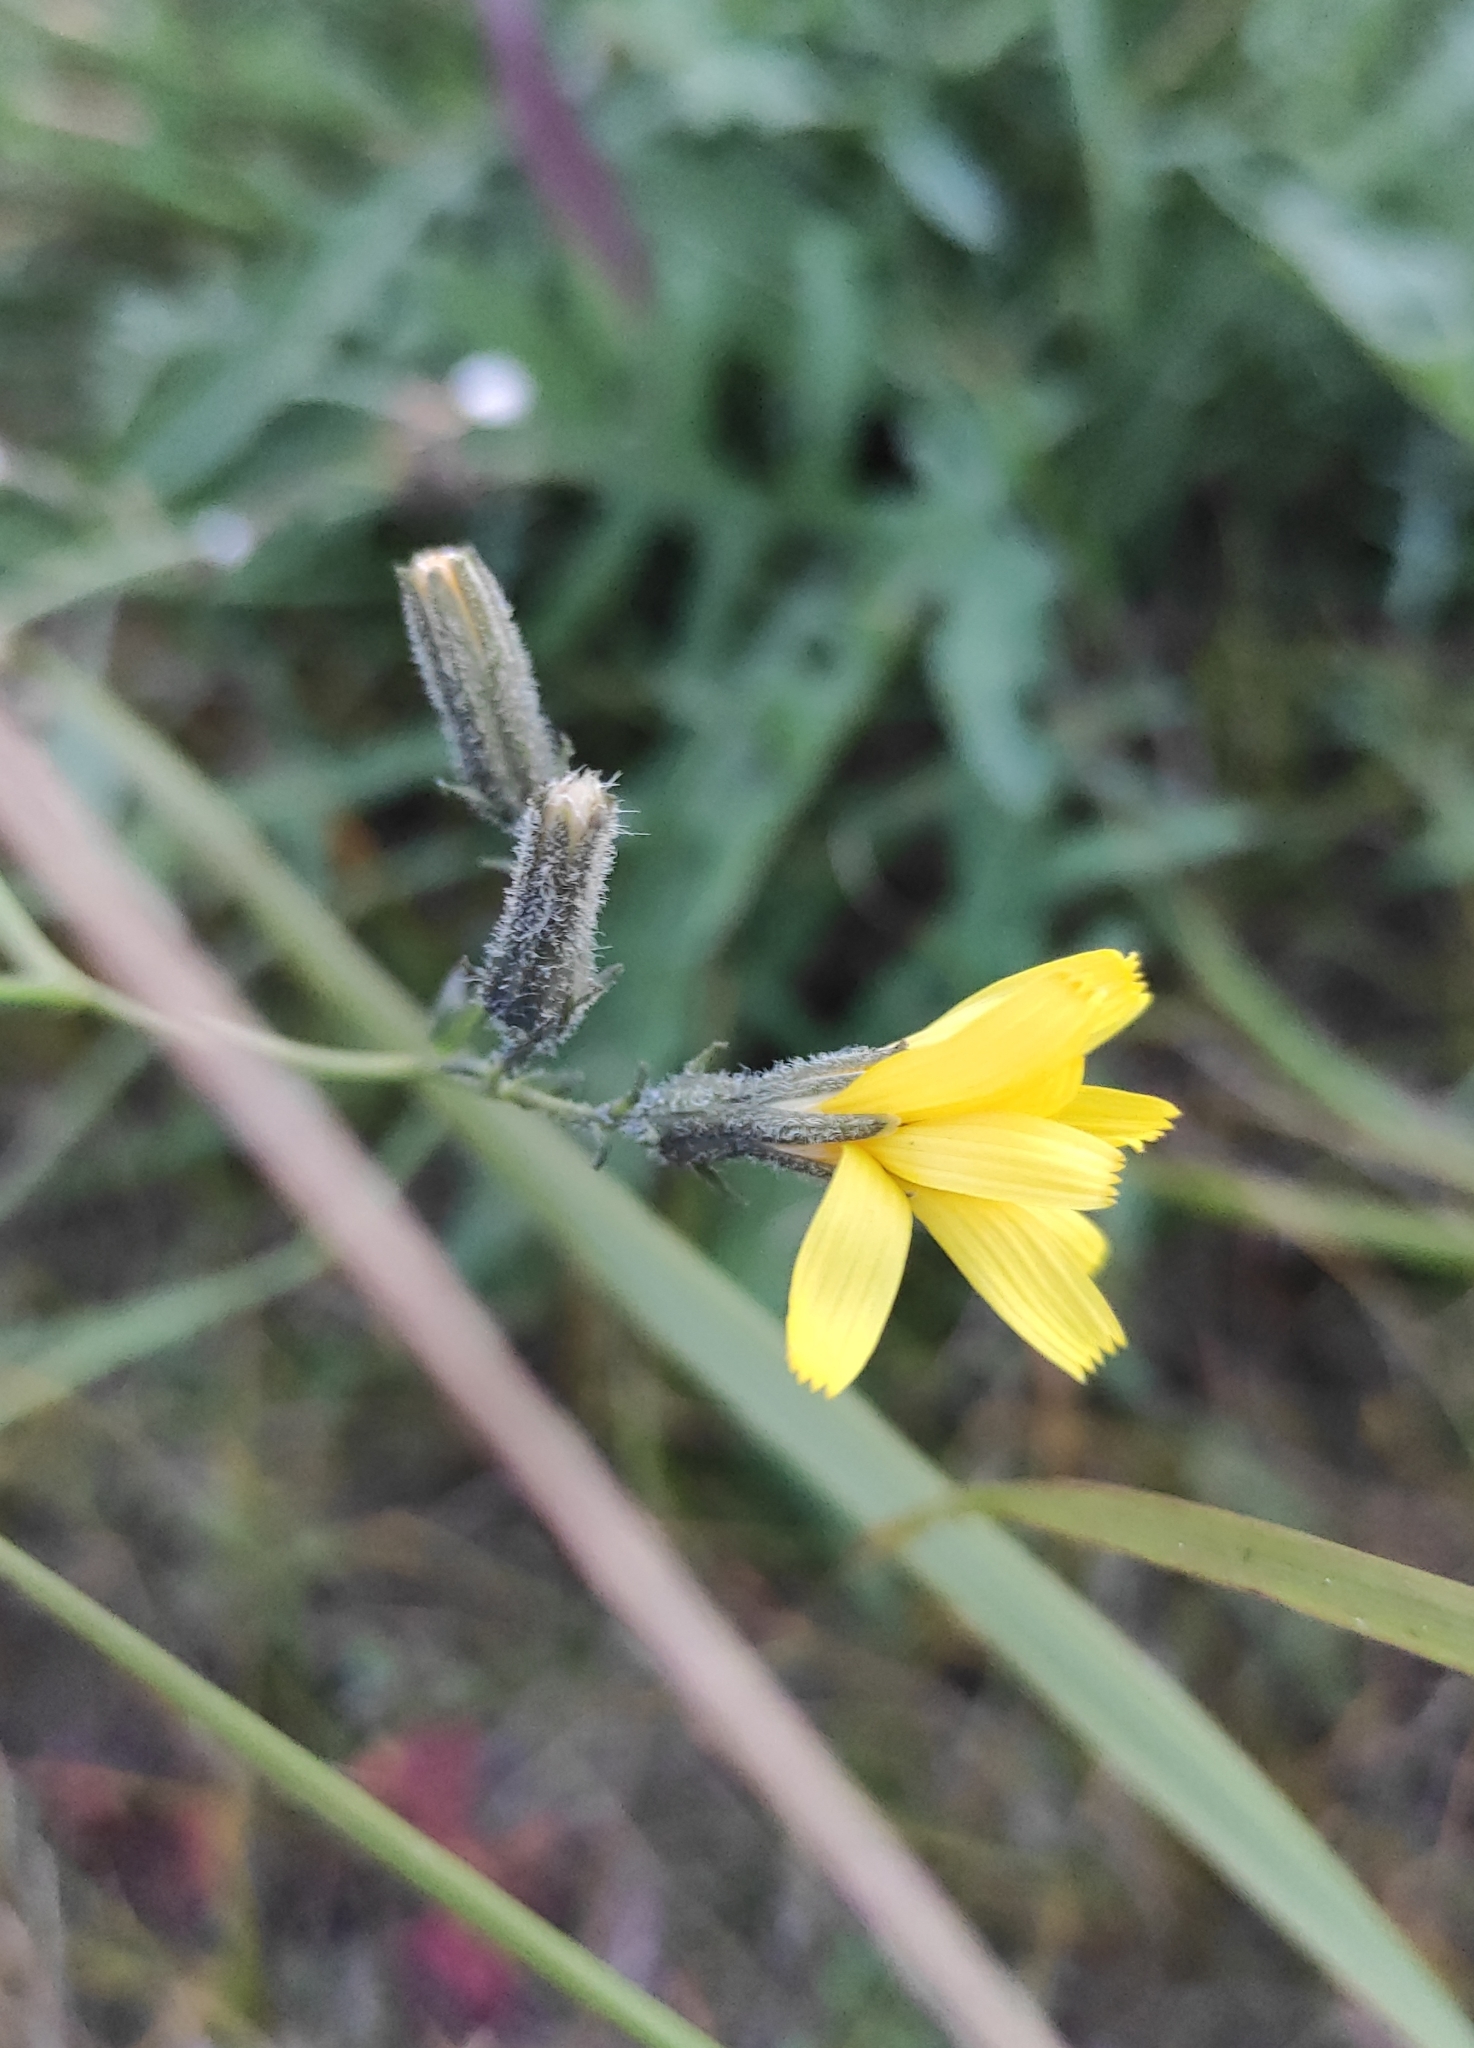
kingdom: Plantae
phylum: Tracheophyta
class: Magnoliopsida
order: Asterales
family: Asteraceae
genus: Crepidiastrum
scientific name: Crepidiastrum tenuifolium
